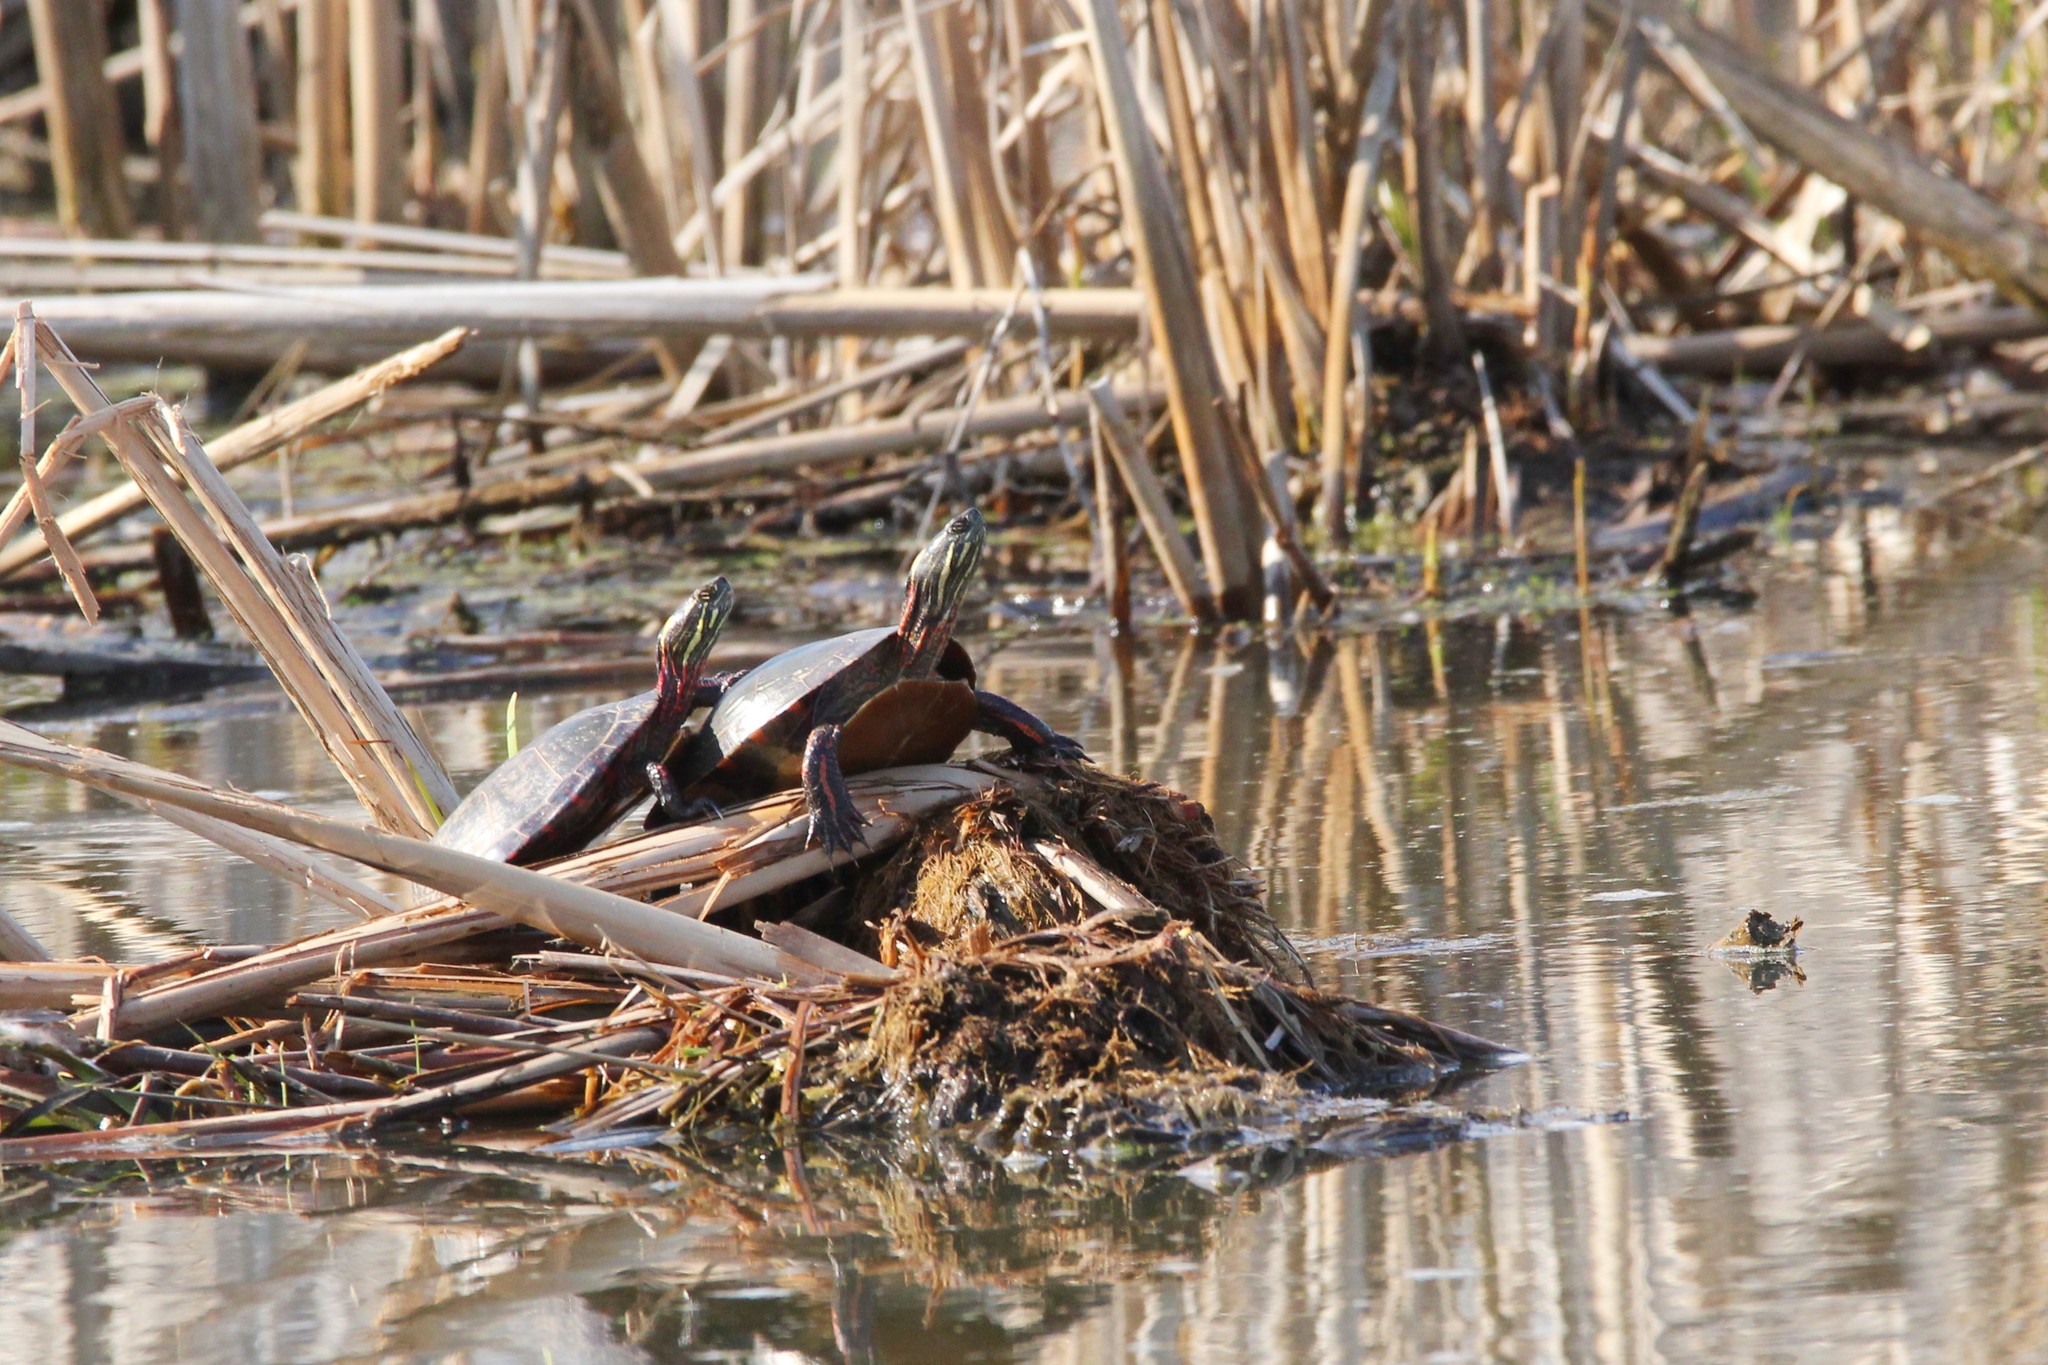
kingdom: Animalia
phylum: Chordata
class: Testudines
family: Emydidae
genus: Chrysemys
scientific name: Chrysemys picta
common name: Painted turtle
